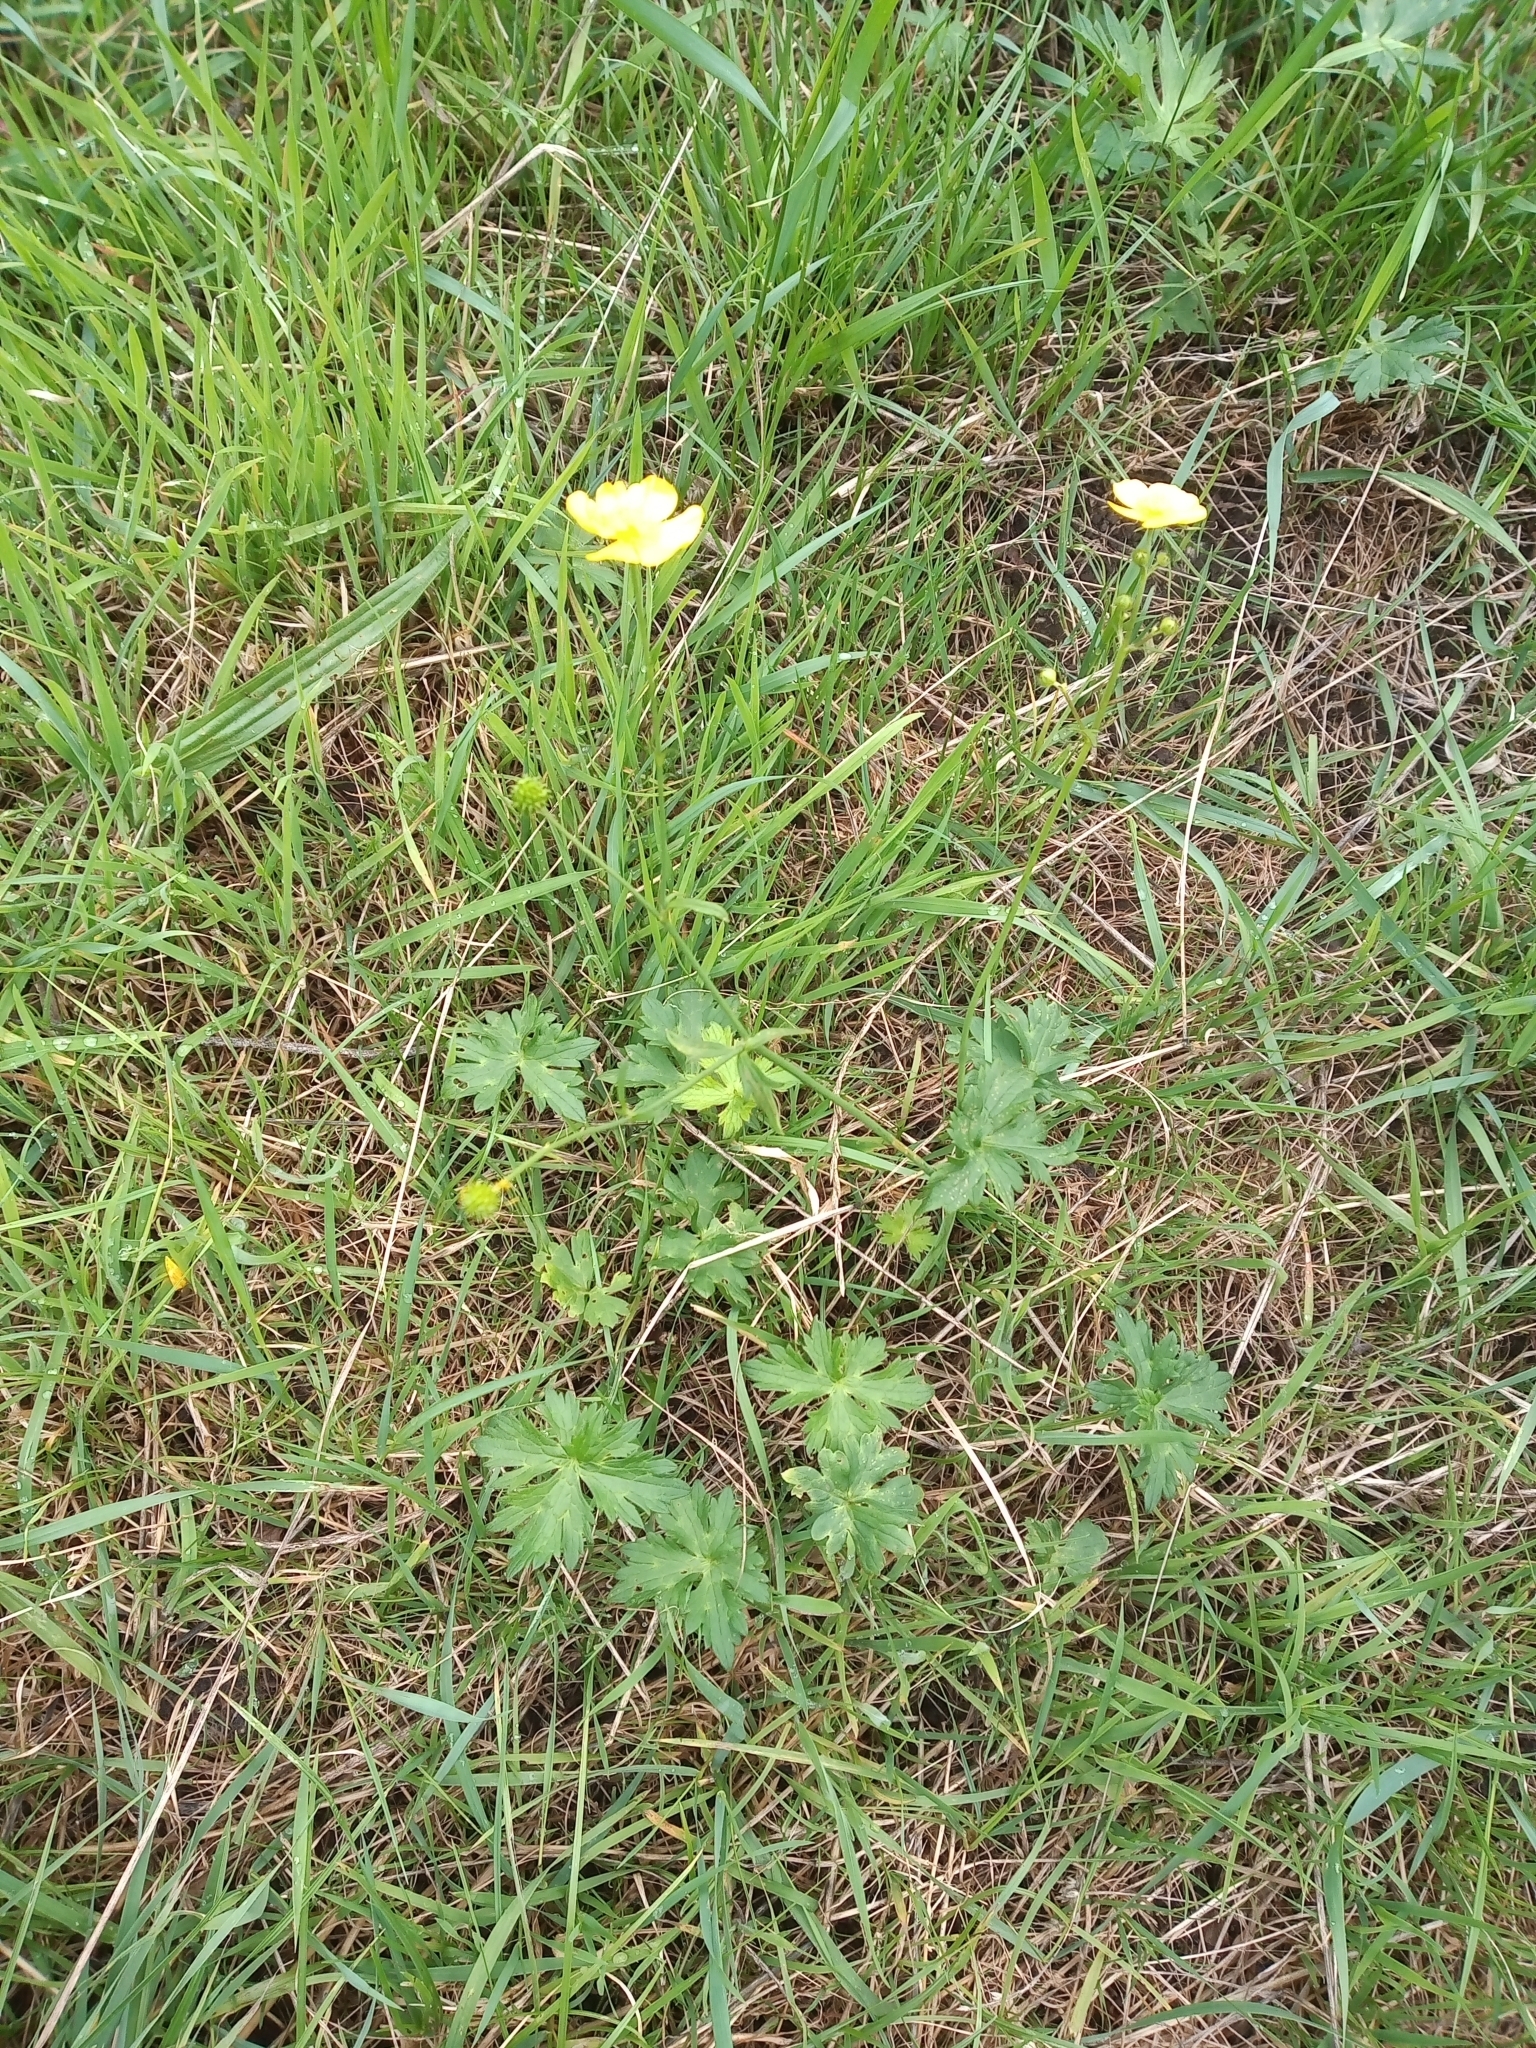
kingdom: Plantae
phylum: Tracheophyta
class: Magnoliopsida
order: Ranunculales
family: Ranunculaceae
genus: Ranunculus
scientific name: Ranunculus acris
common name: Meadow buttercup
